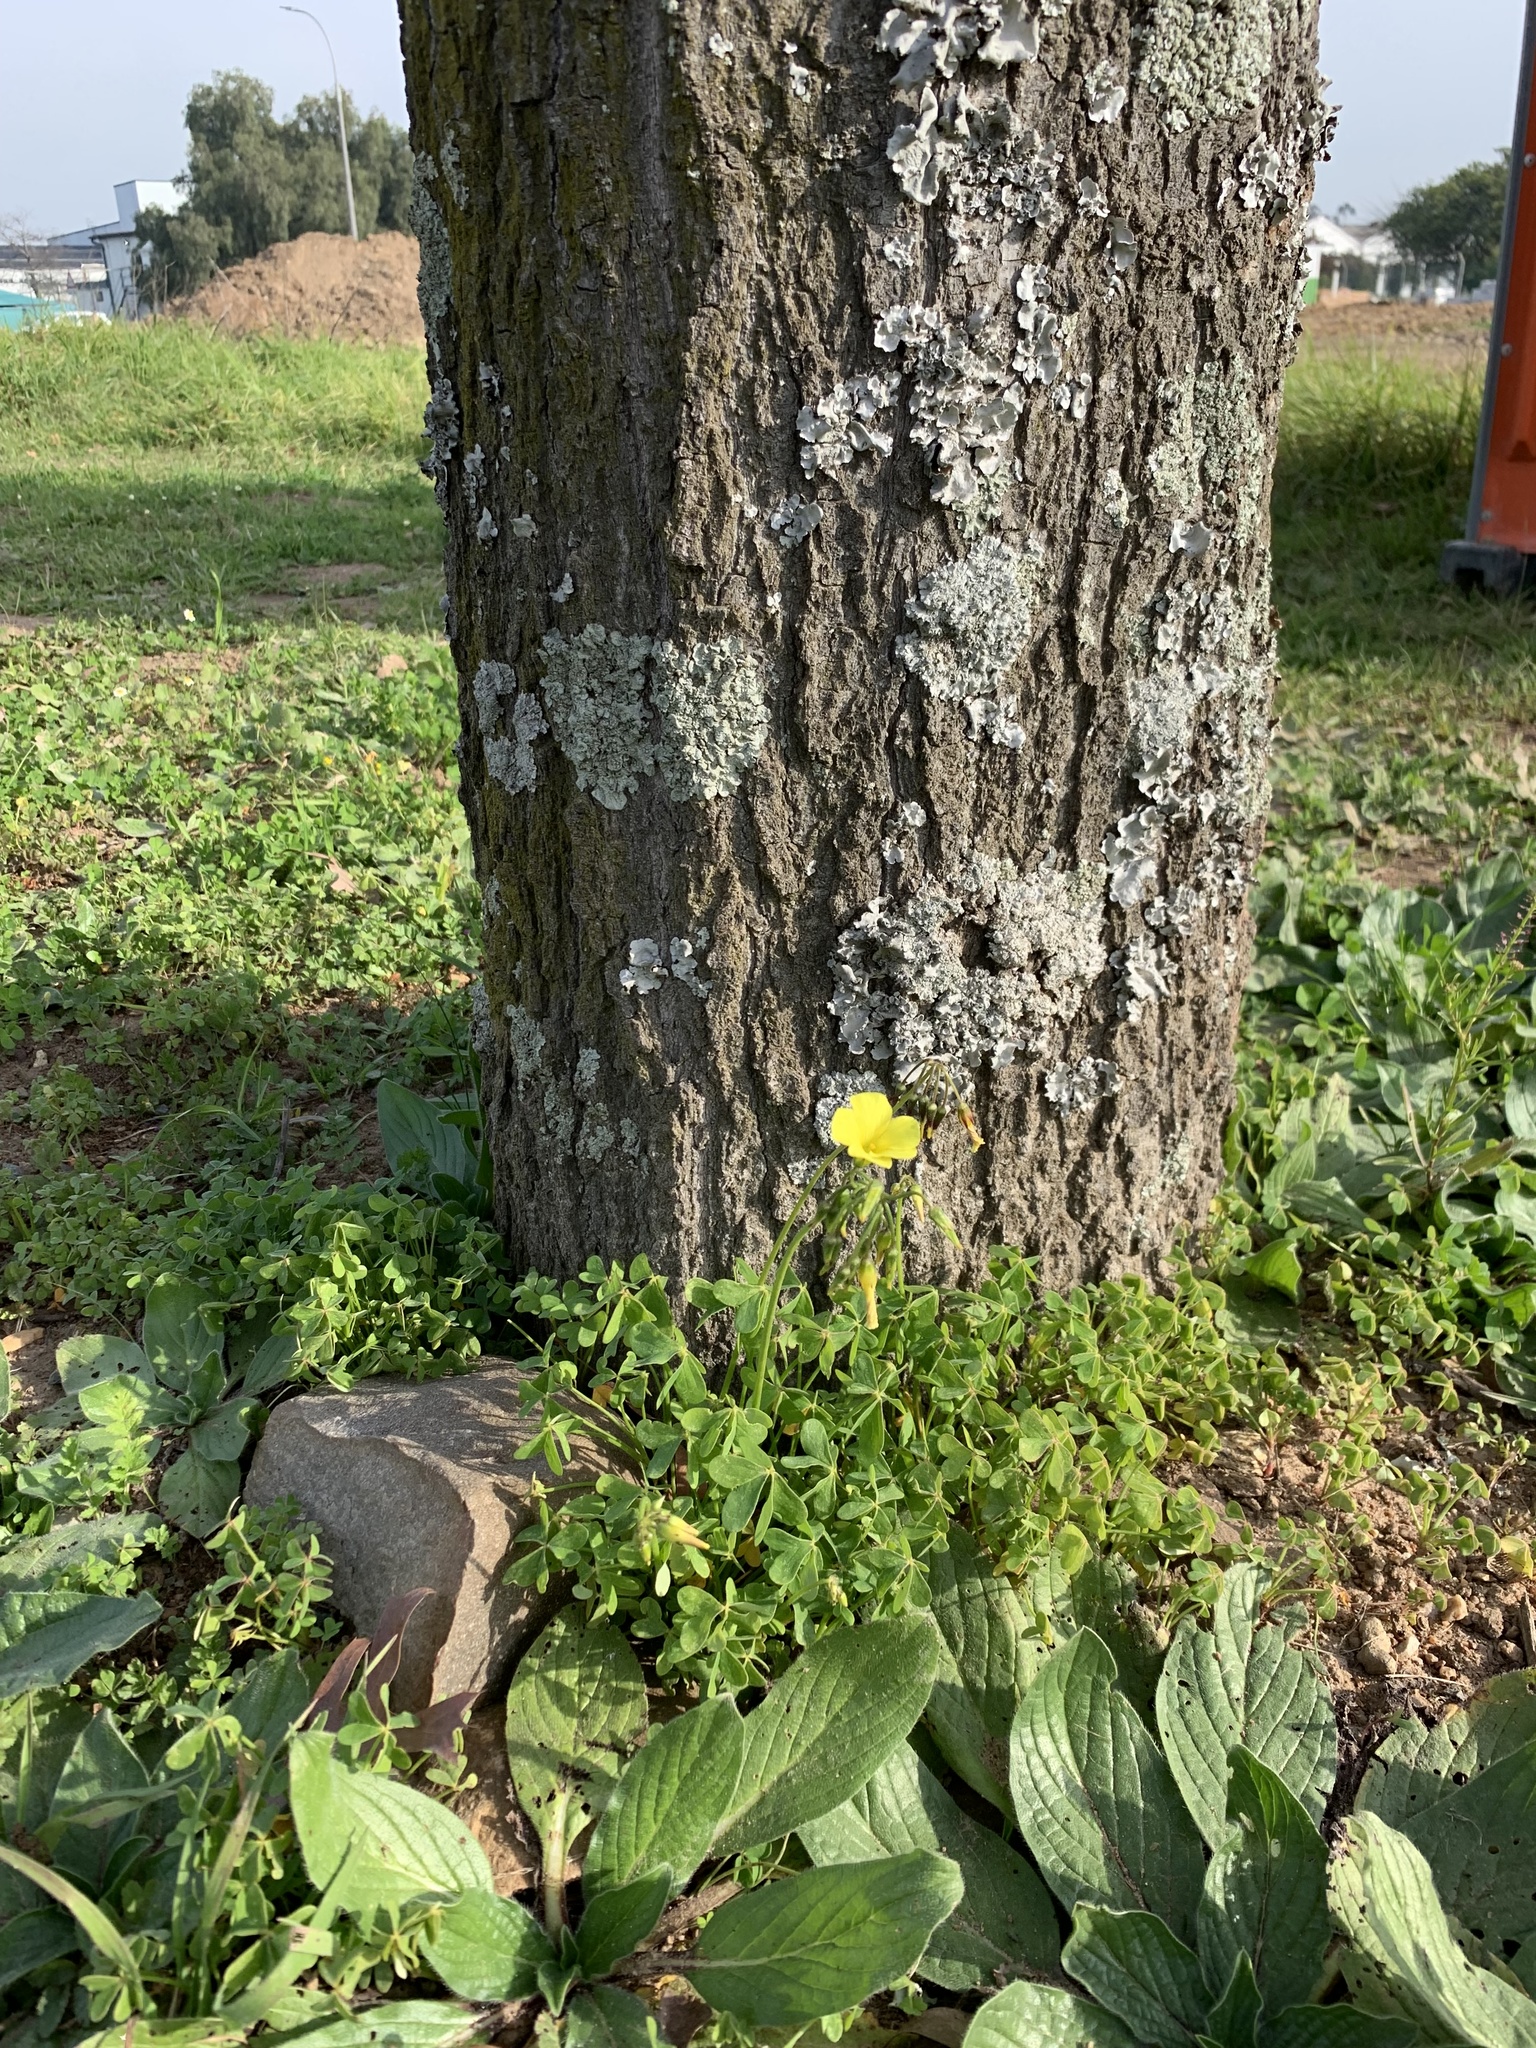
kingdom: Plantae
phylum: Tracheophyta
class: Magnoliopsida
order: Oxalidales
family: Oxalidaceae
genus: Oxalis
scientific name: Oxalis pes-caprae
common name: Bermuda-buttercup
